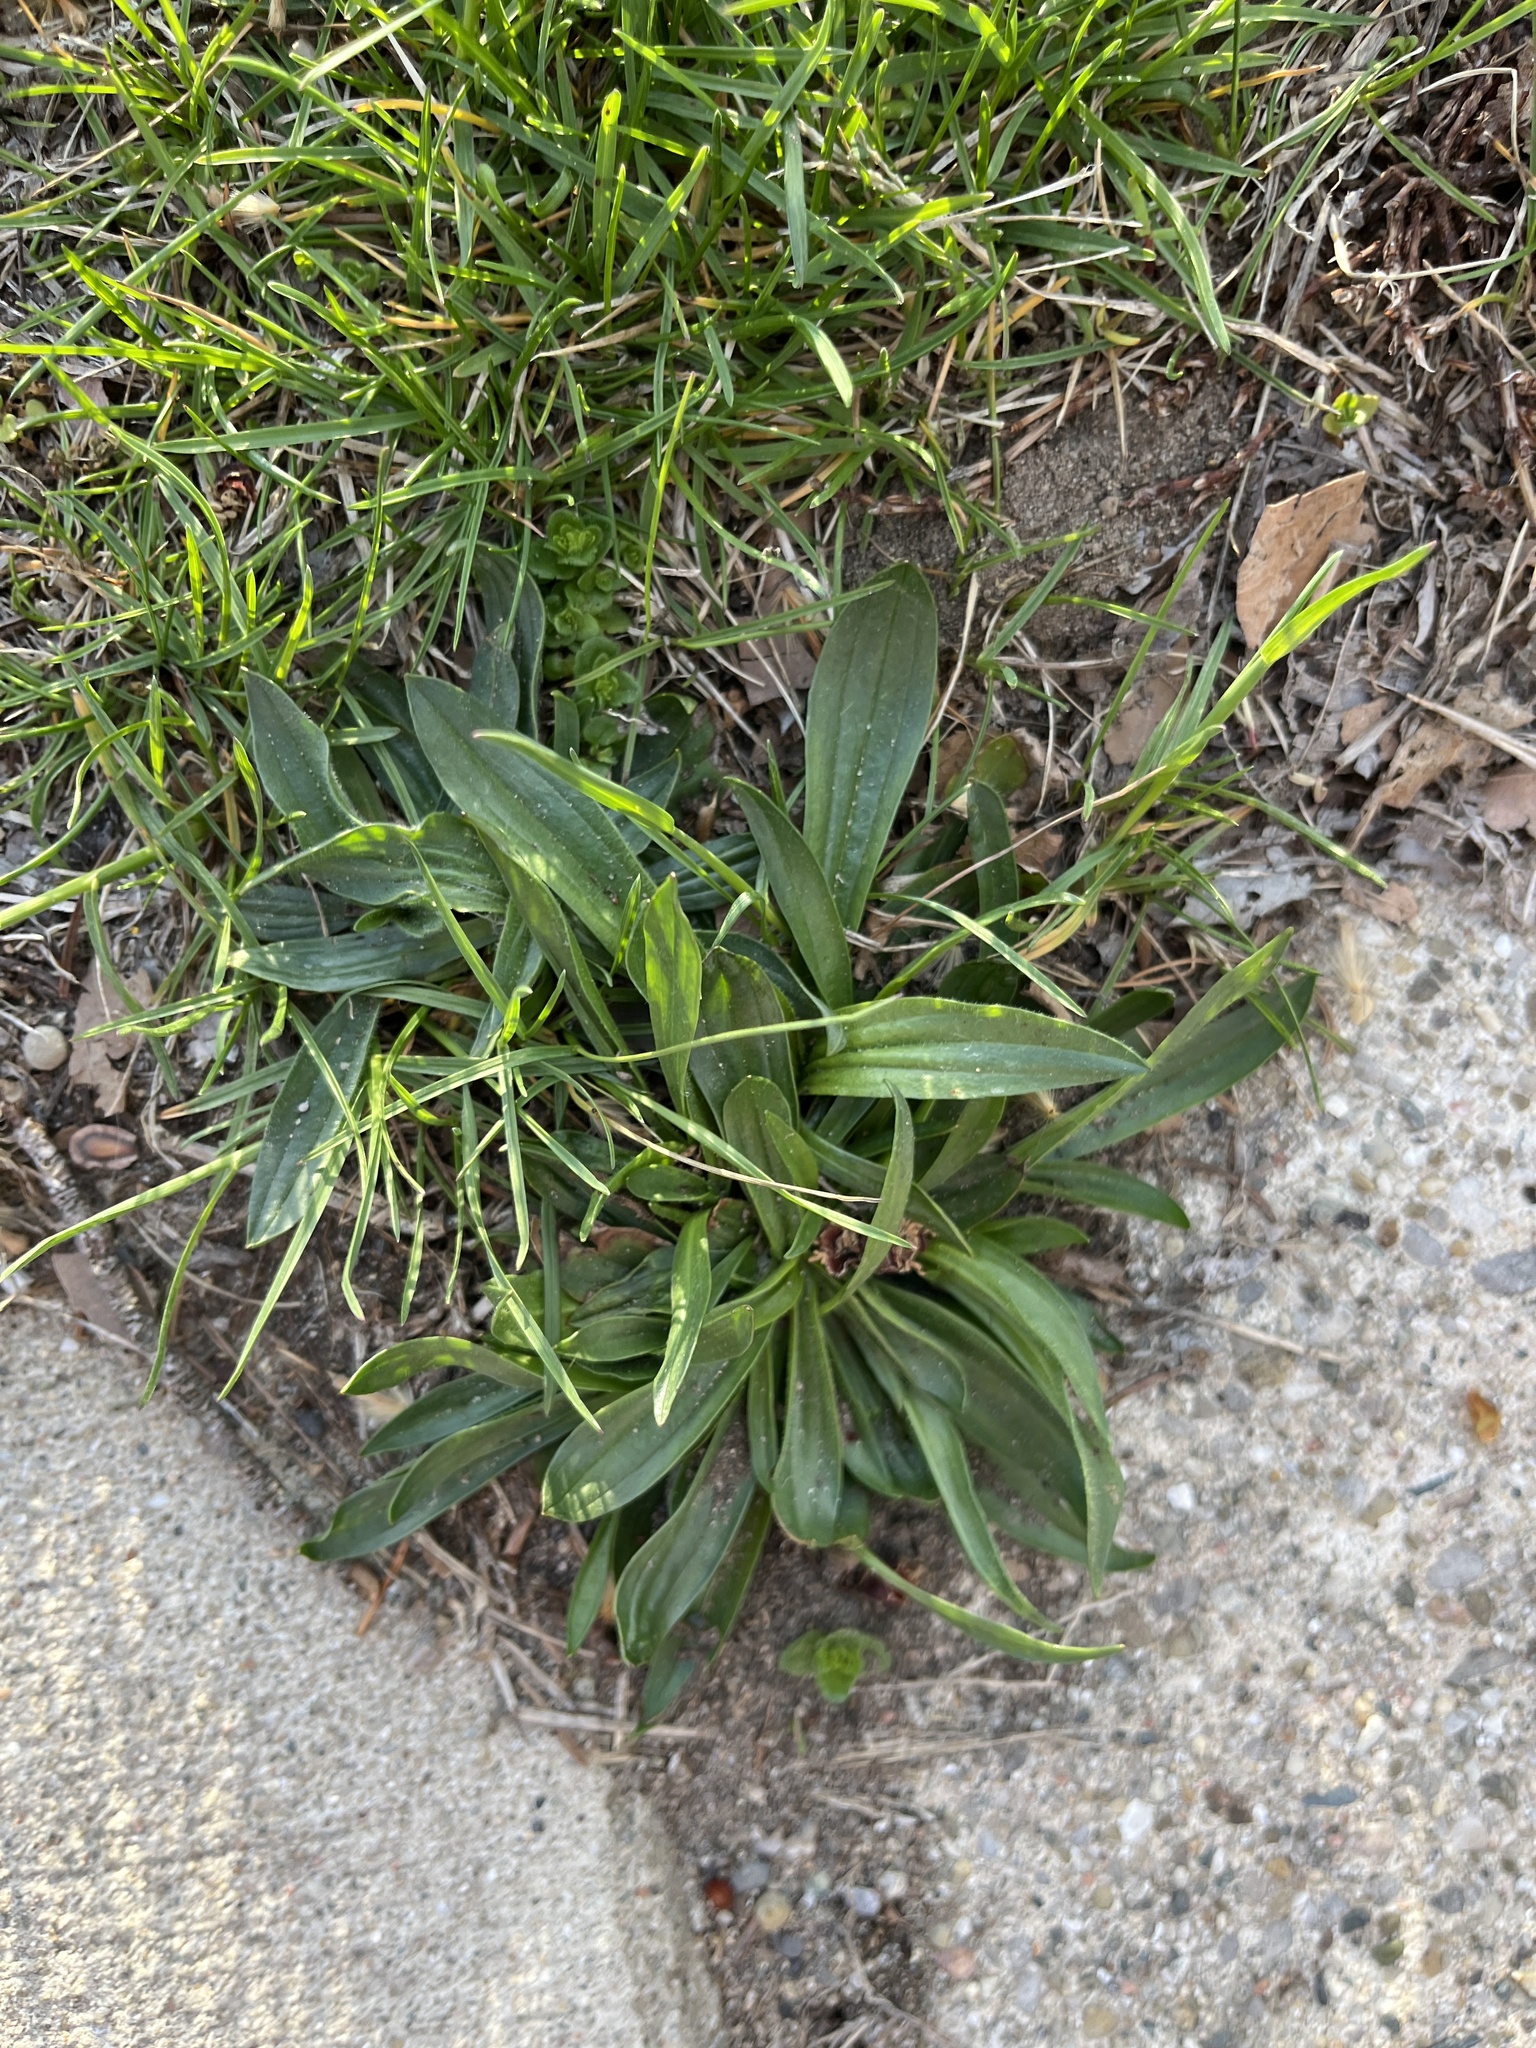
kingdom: Plantae
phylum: Tracheophyta
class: Magnoliopsida
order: Lamiales
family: Plantaginaceae
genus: Plantago
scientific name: Plantago lanceolata
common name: Ribwort plantain
